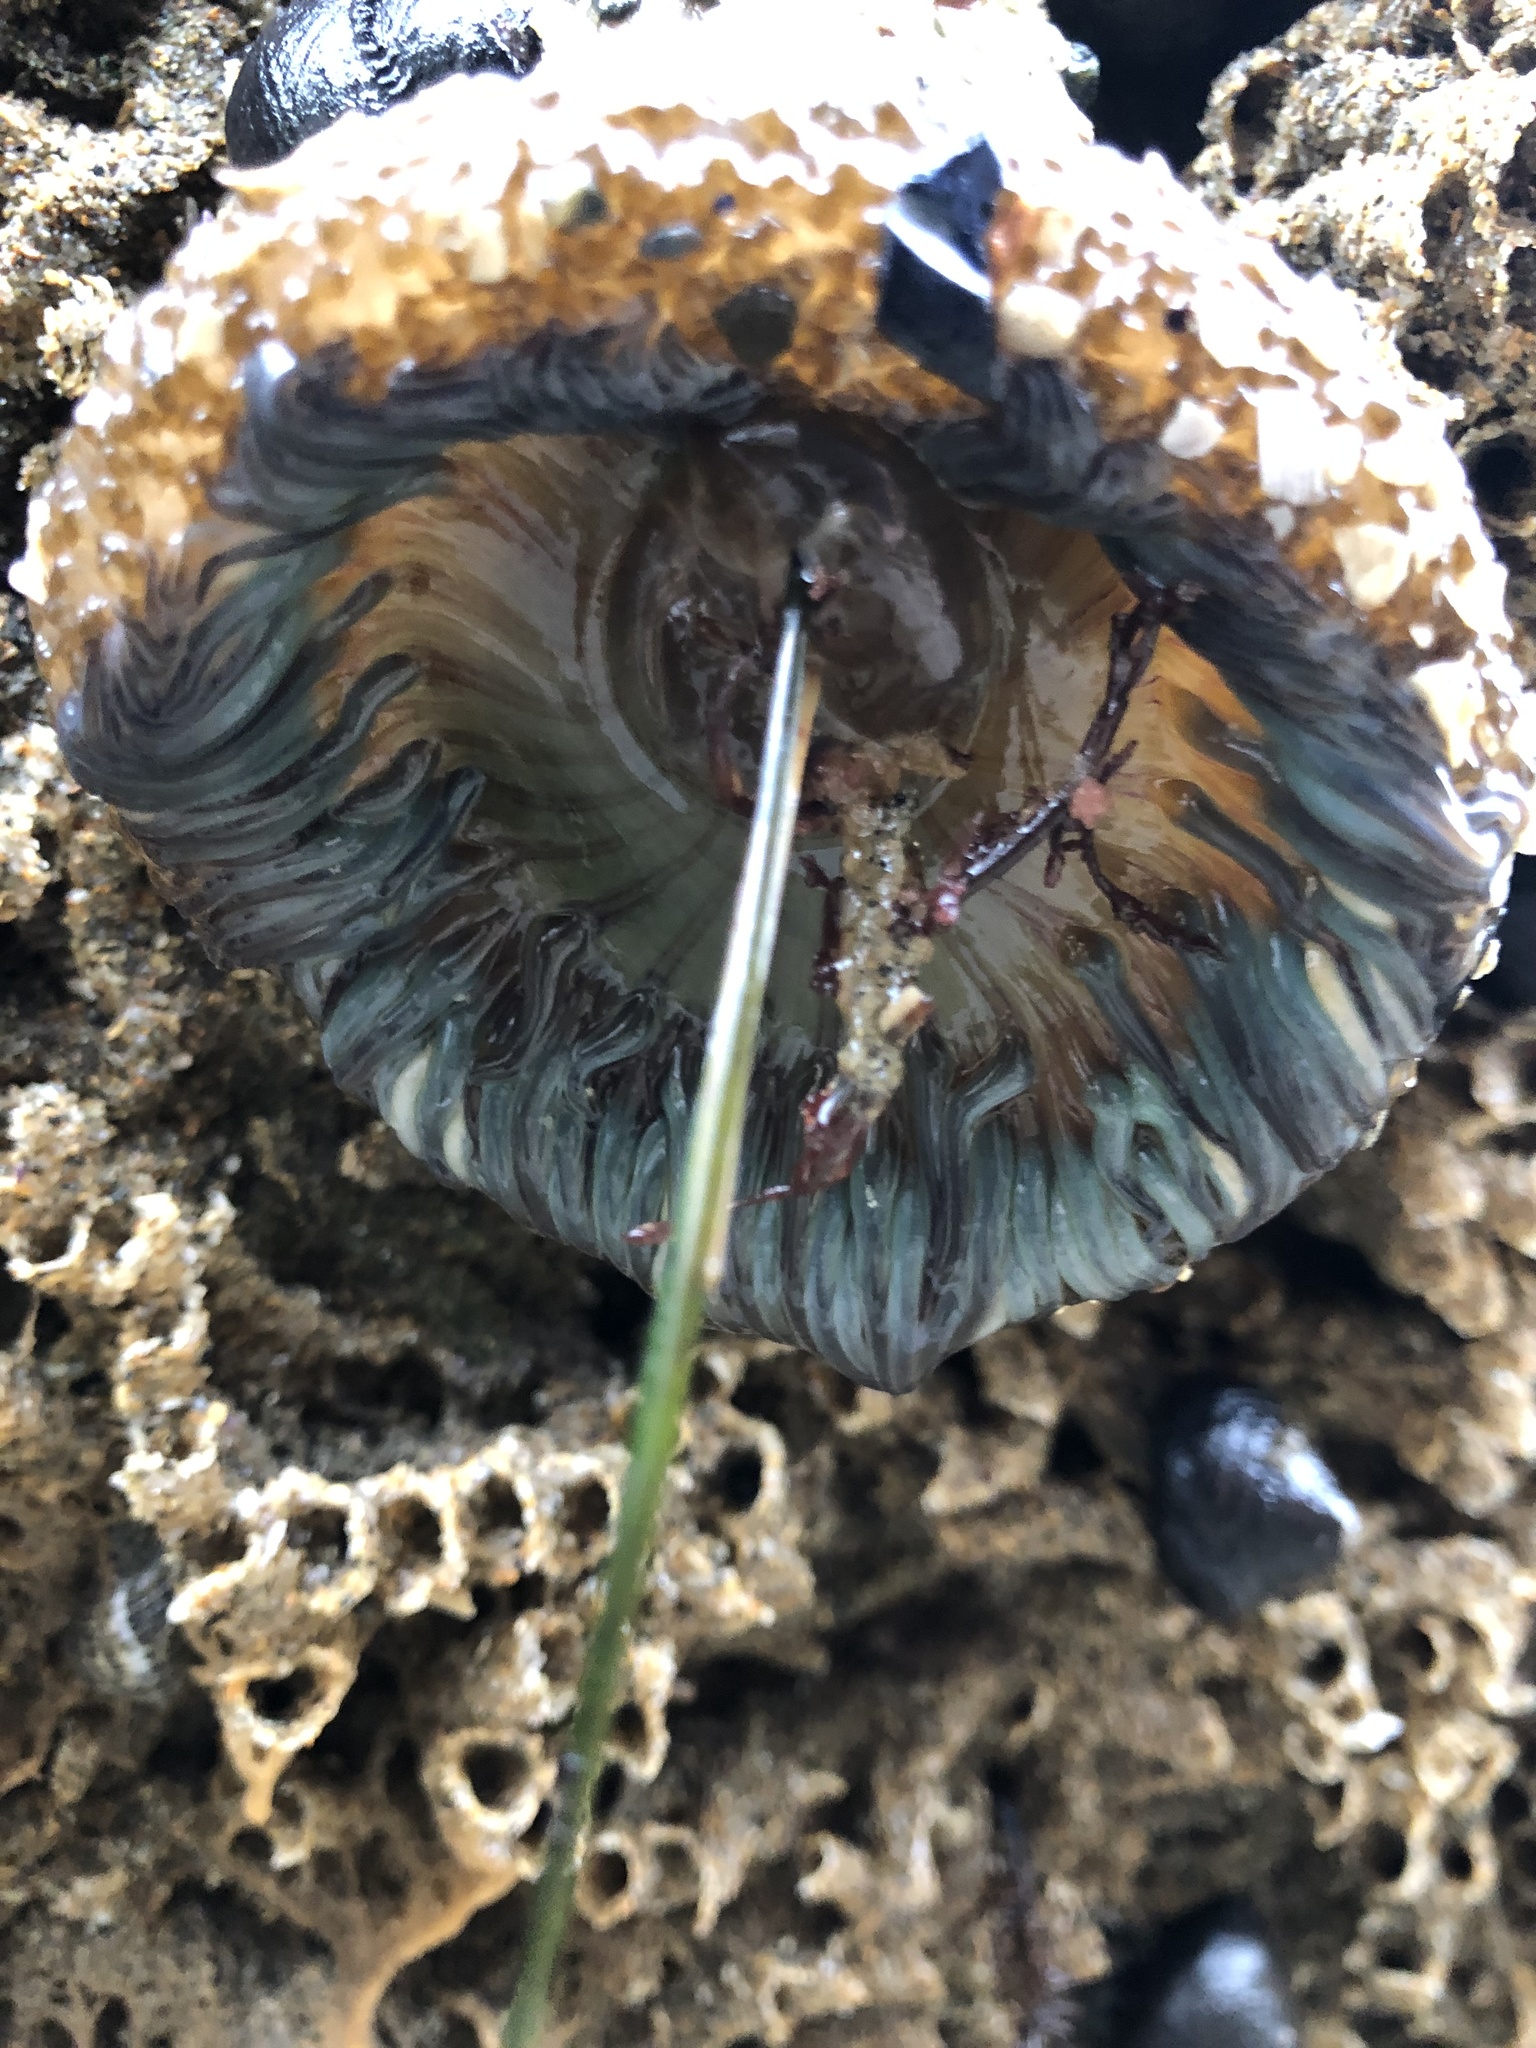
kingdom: Animalia
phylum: Cnidaria
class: Anthozoa
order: Actiniaria
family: Actiniidae
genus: Anthopleura
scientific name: Anthopleura sola
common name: Sun anemone
